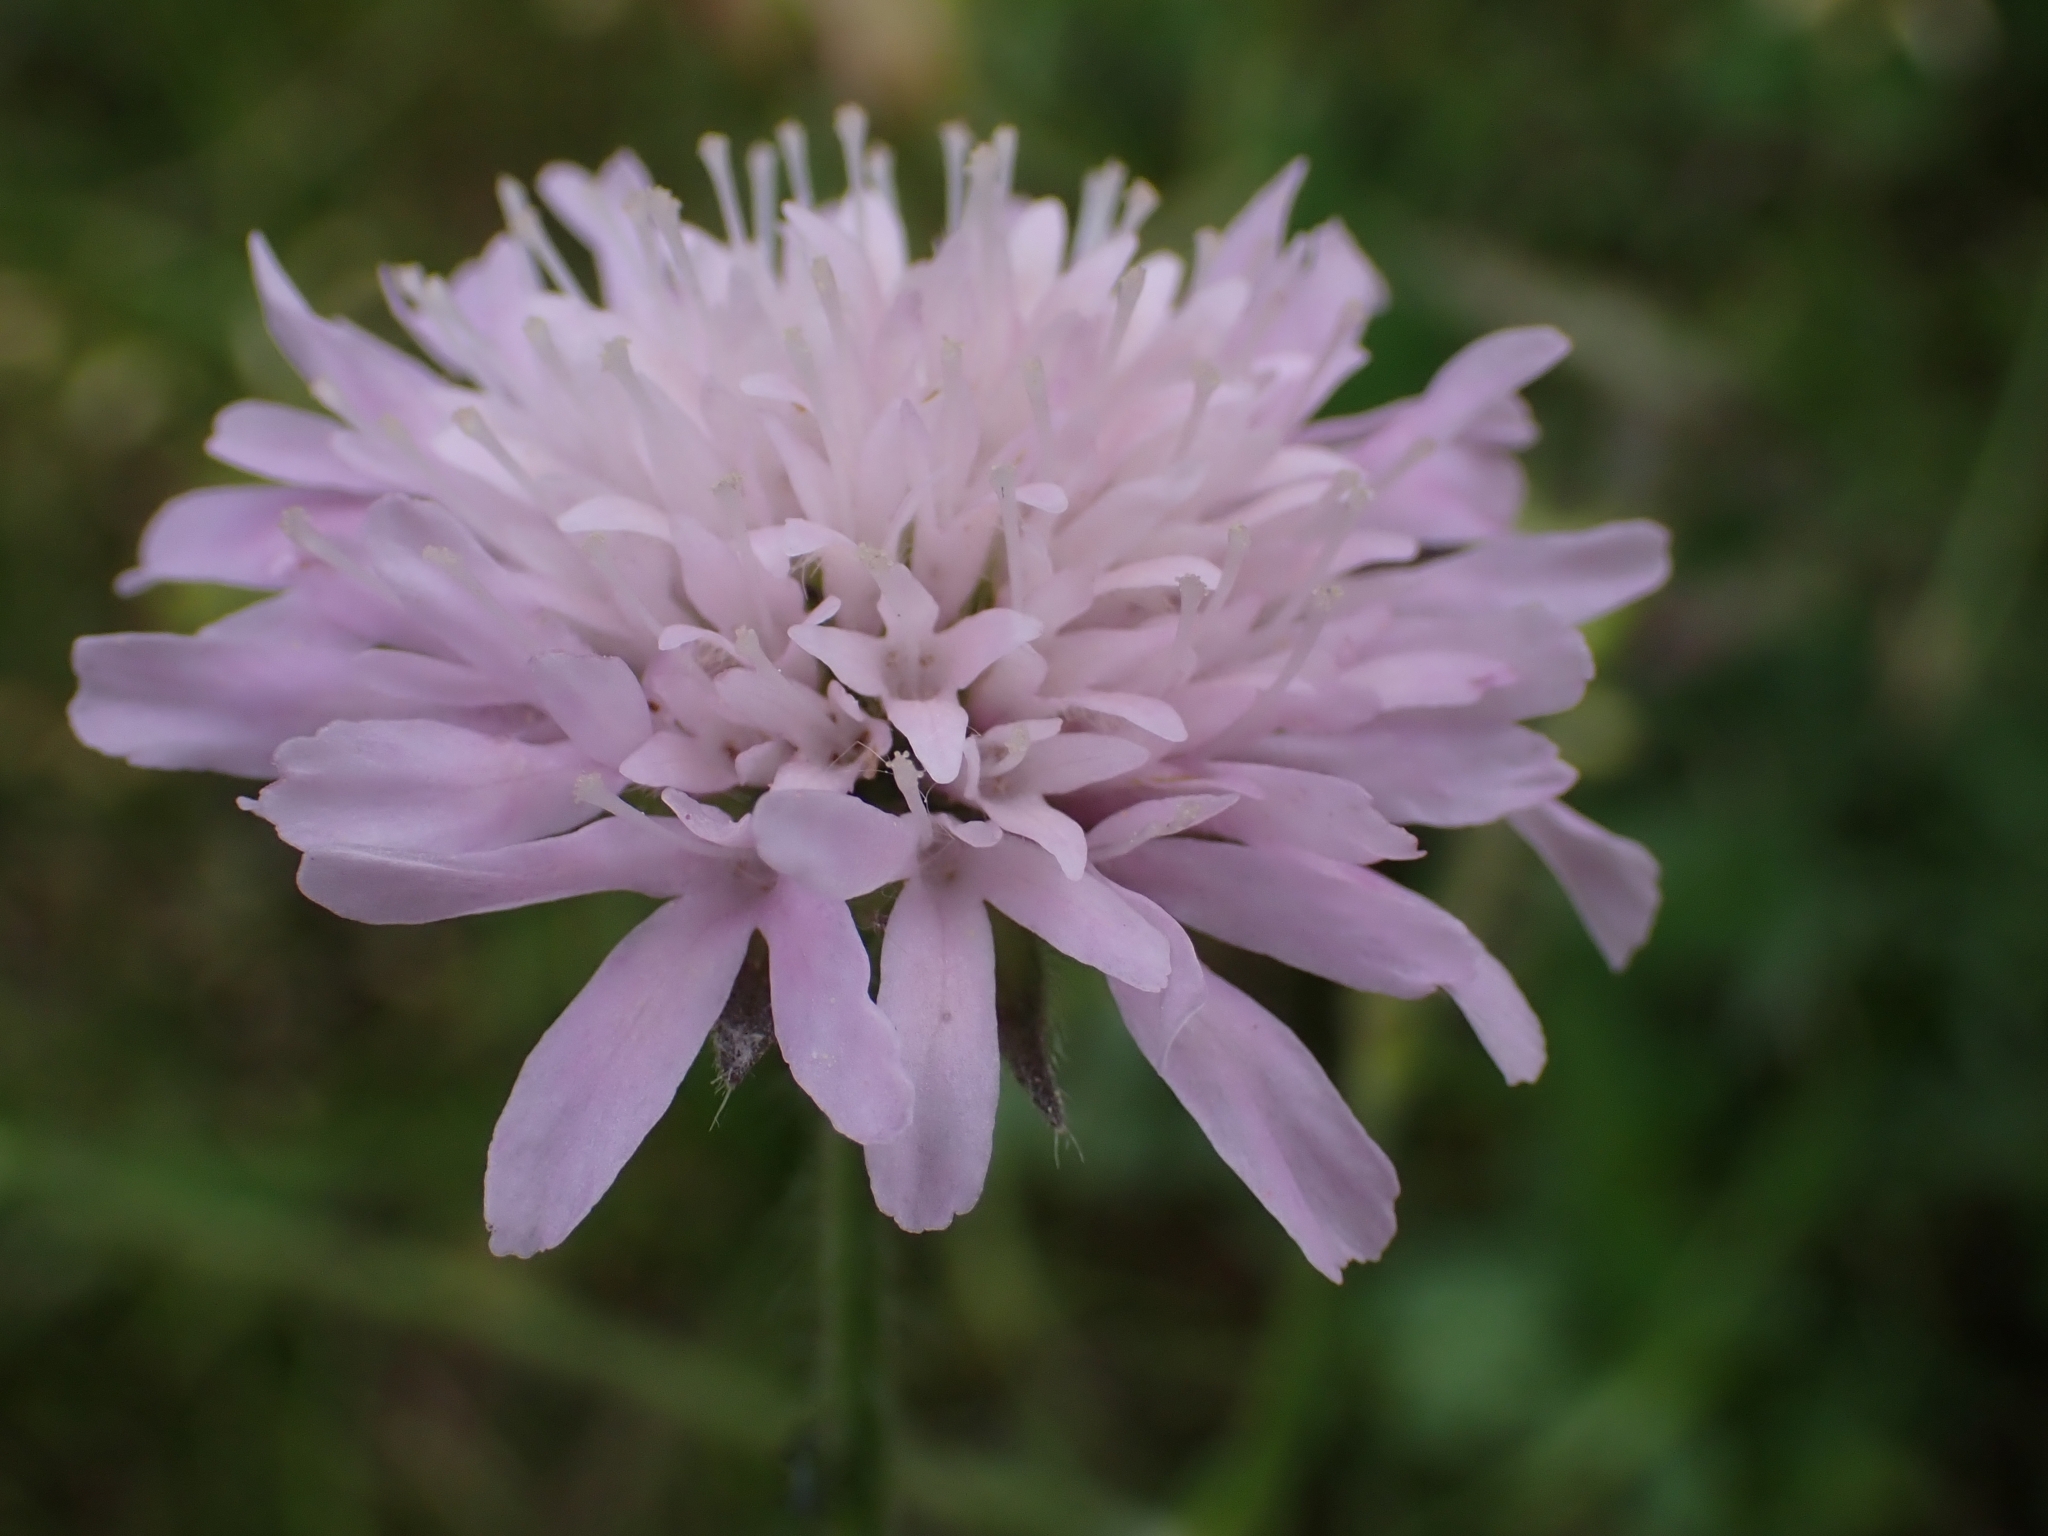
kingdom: Plantae
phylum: Tracheophyta
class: Magnoliopsida
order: Dipsacales
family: Caprifoliaceae
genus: Knautia
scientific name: Knautia arvensis
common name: Field scabiosa
